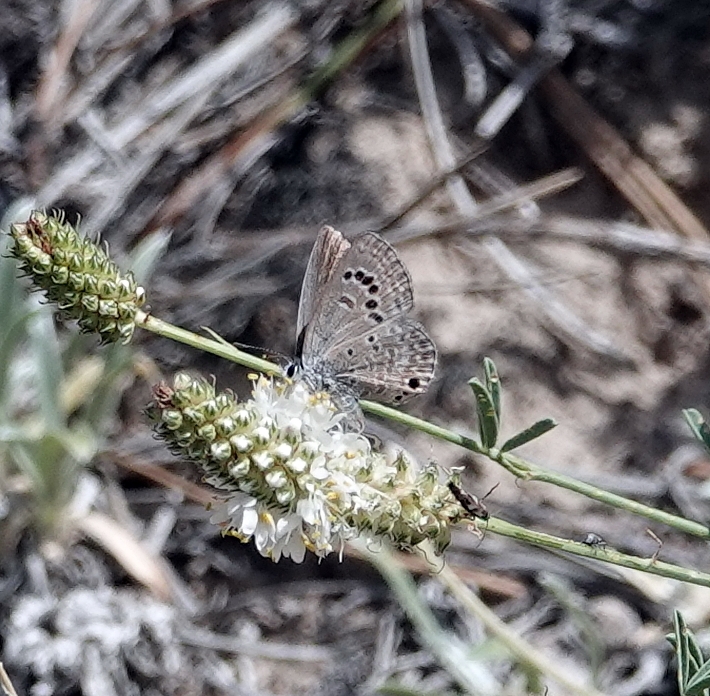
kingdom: Animalia
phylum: Arthropoda
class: Insecta
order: Lepidoptera
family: Lycaenidae
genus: Echinargus
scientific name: Echinargus isola
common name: Reakirt's blue
